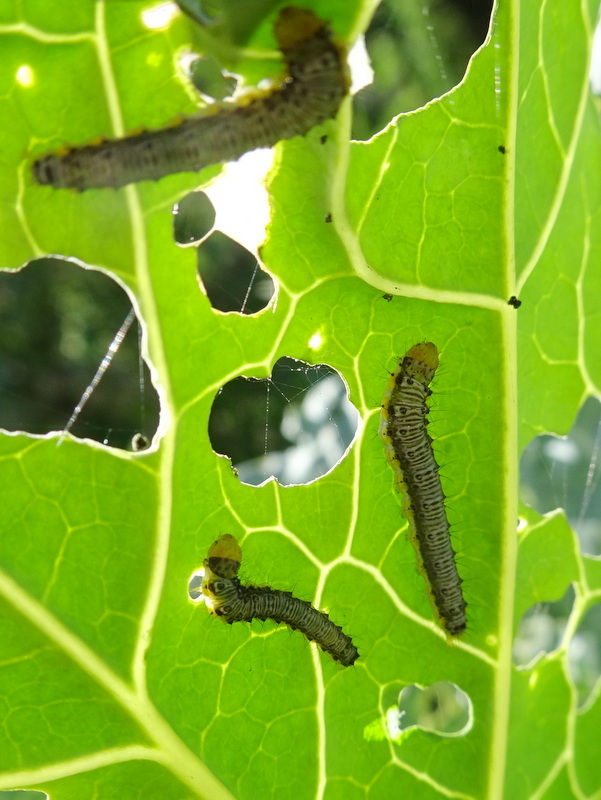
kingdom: Animalia
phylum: Arthropoda
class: Insecta
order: Lepidoptera
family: Crambidae
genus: Evergestis
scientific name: Evergestis rimosalis
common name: Cross-striped cabbageworm moth
